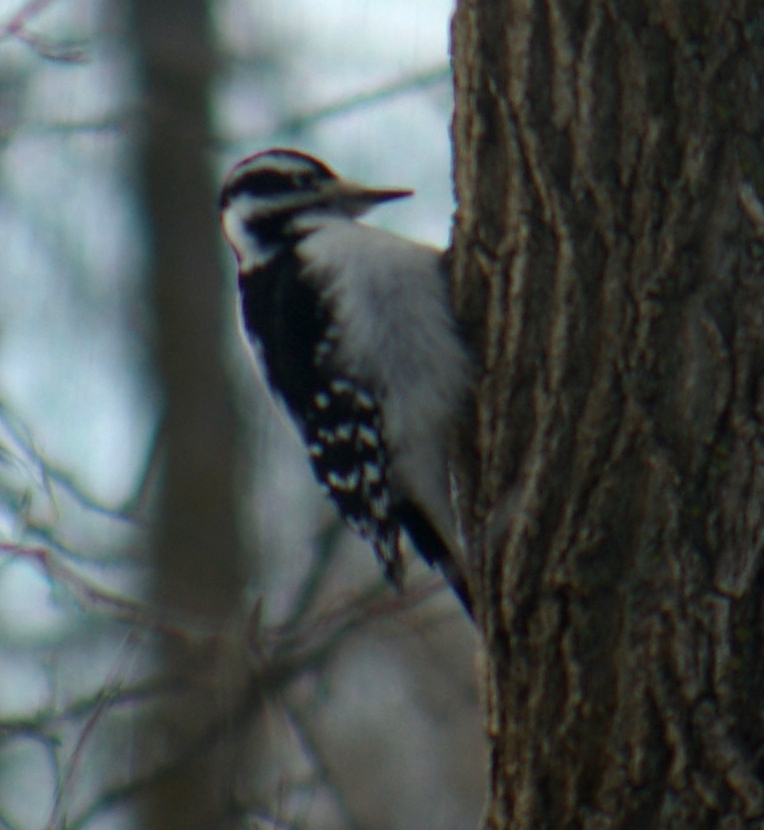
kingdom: Animalia
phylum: Chordata
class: Aves
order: Piciformes
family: Picidae
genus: Leuconotopicus
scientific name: Leuconotopicus villosus
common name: Hairy woodpecker
